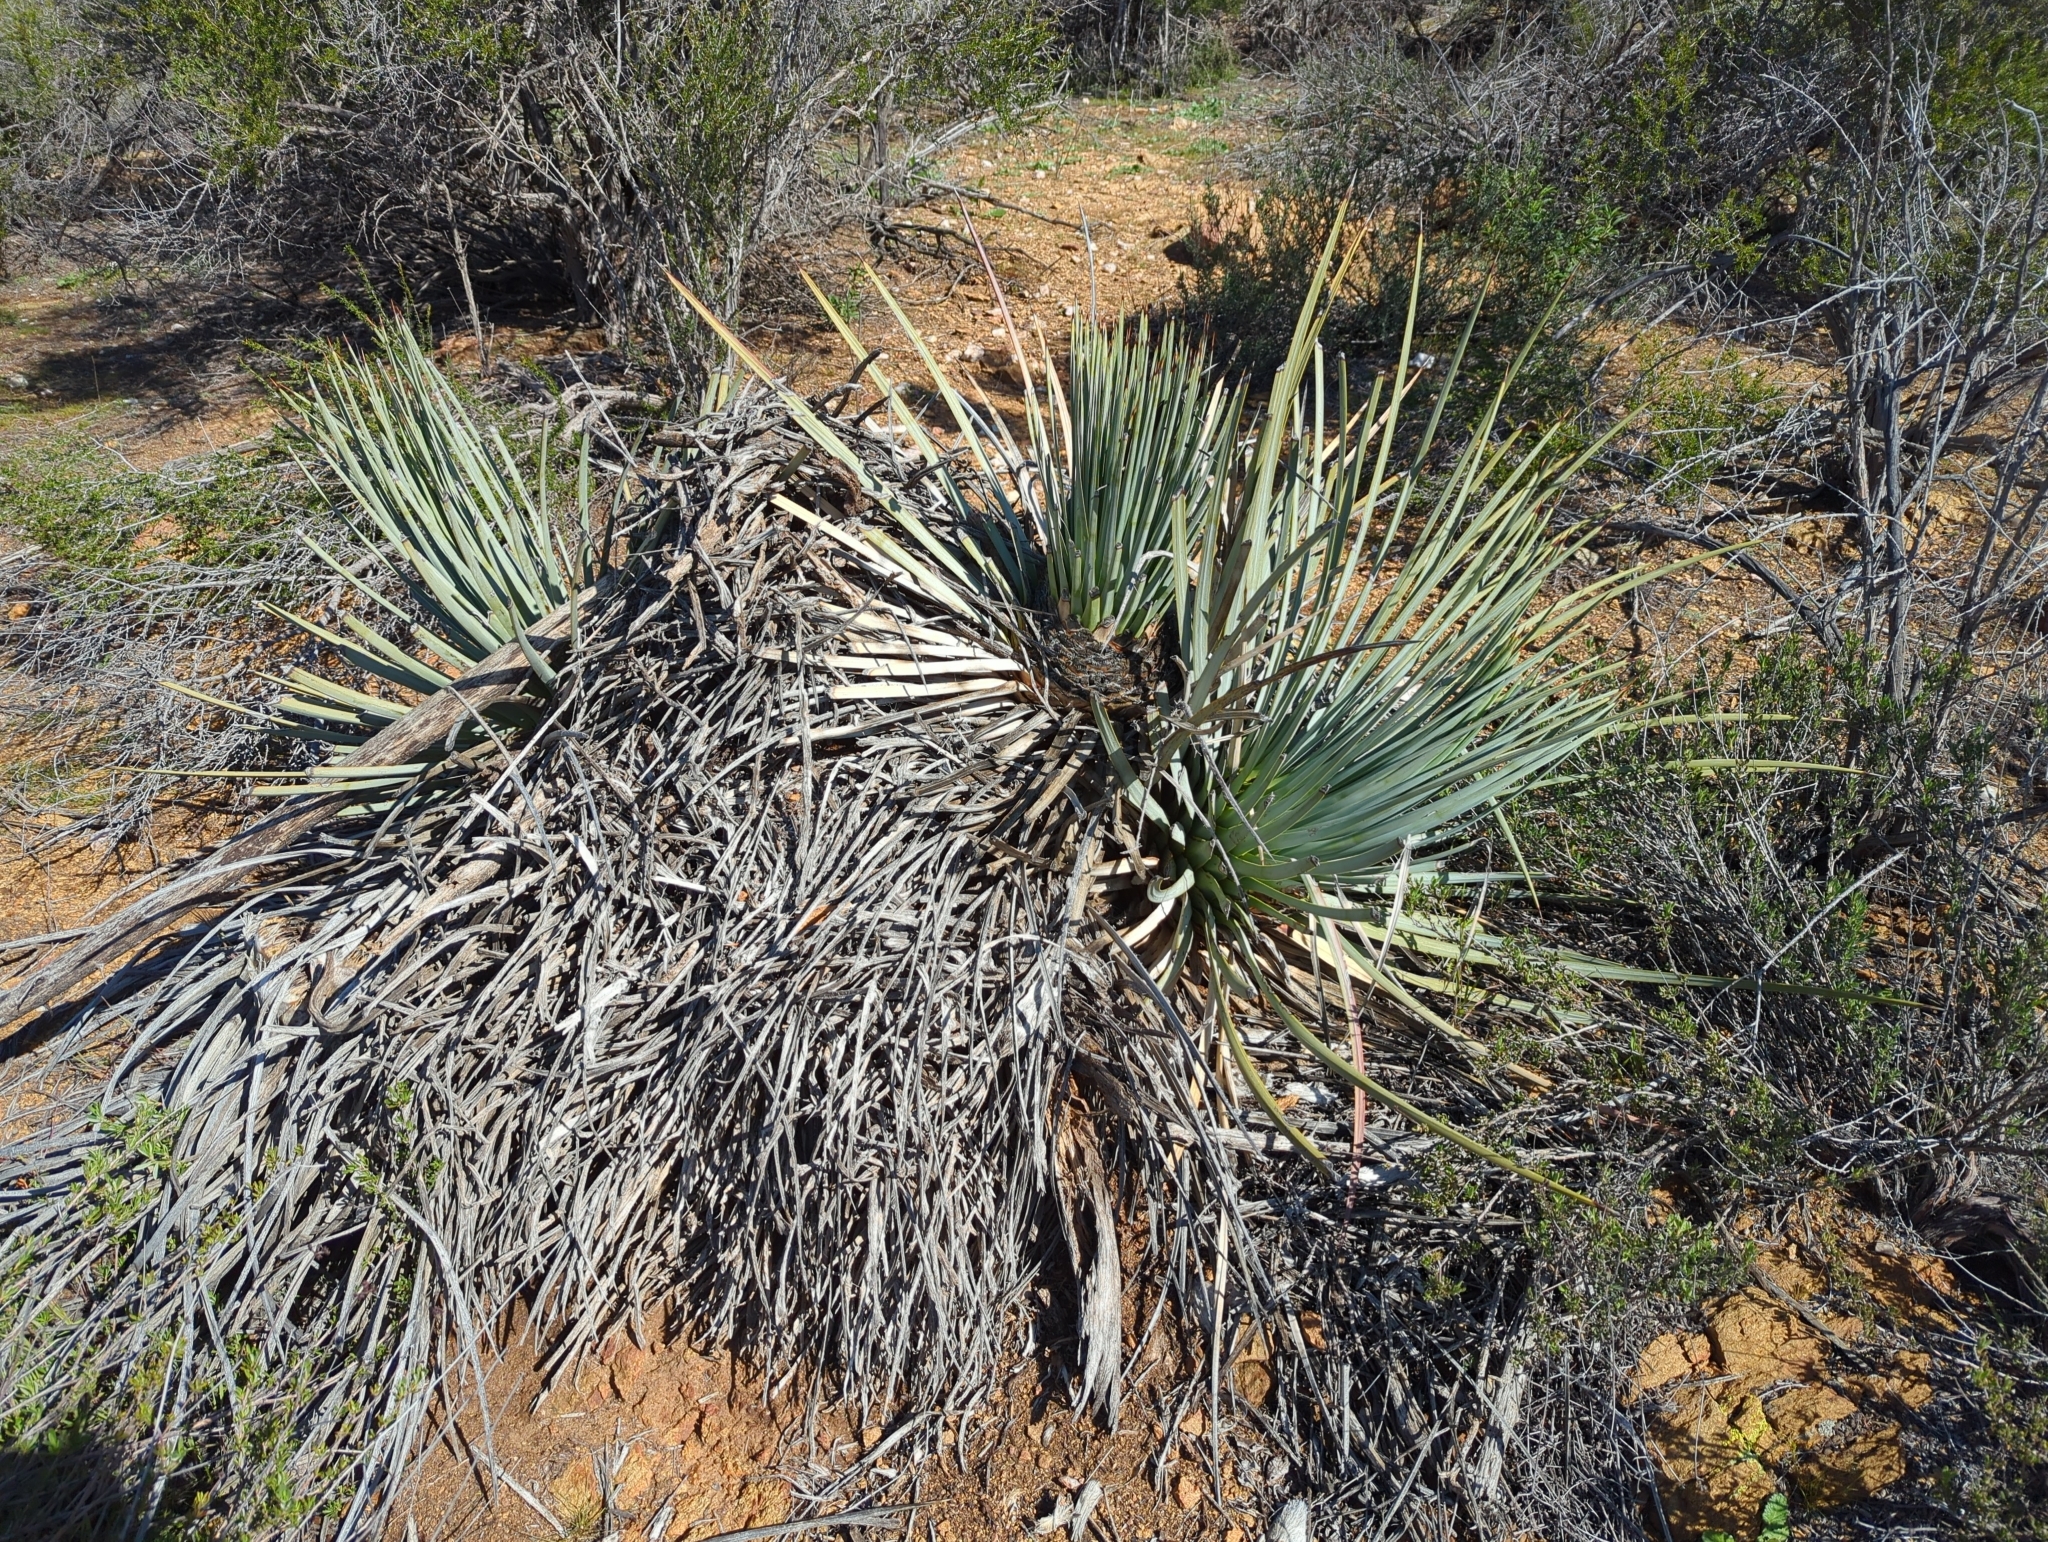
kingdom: Plantae
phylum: Tracheophyta
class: Liliopsida
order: Asparagales
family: Asparagaceae
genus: Hesperoyucca
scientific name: Hesperoyucca whipplei
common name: Our lord's-candle
